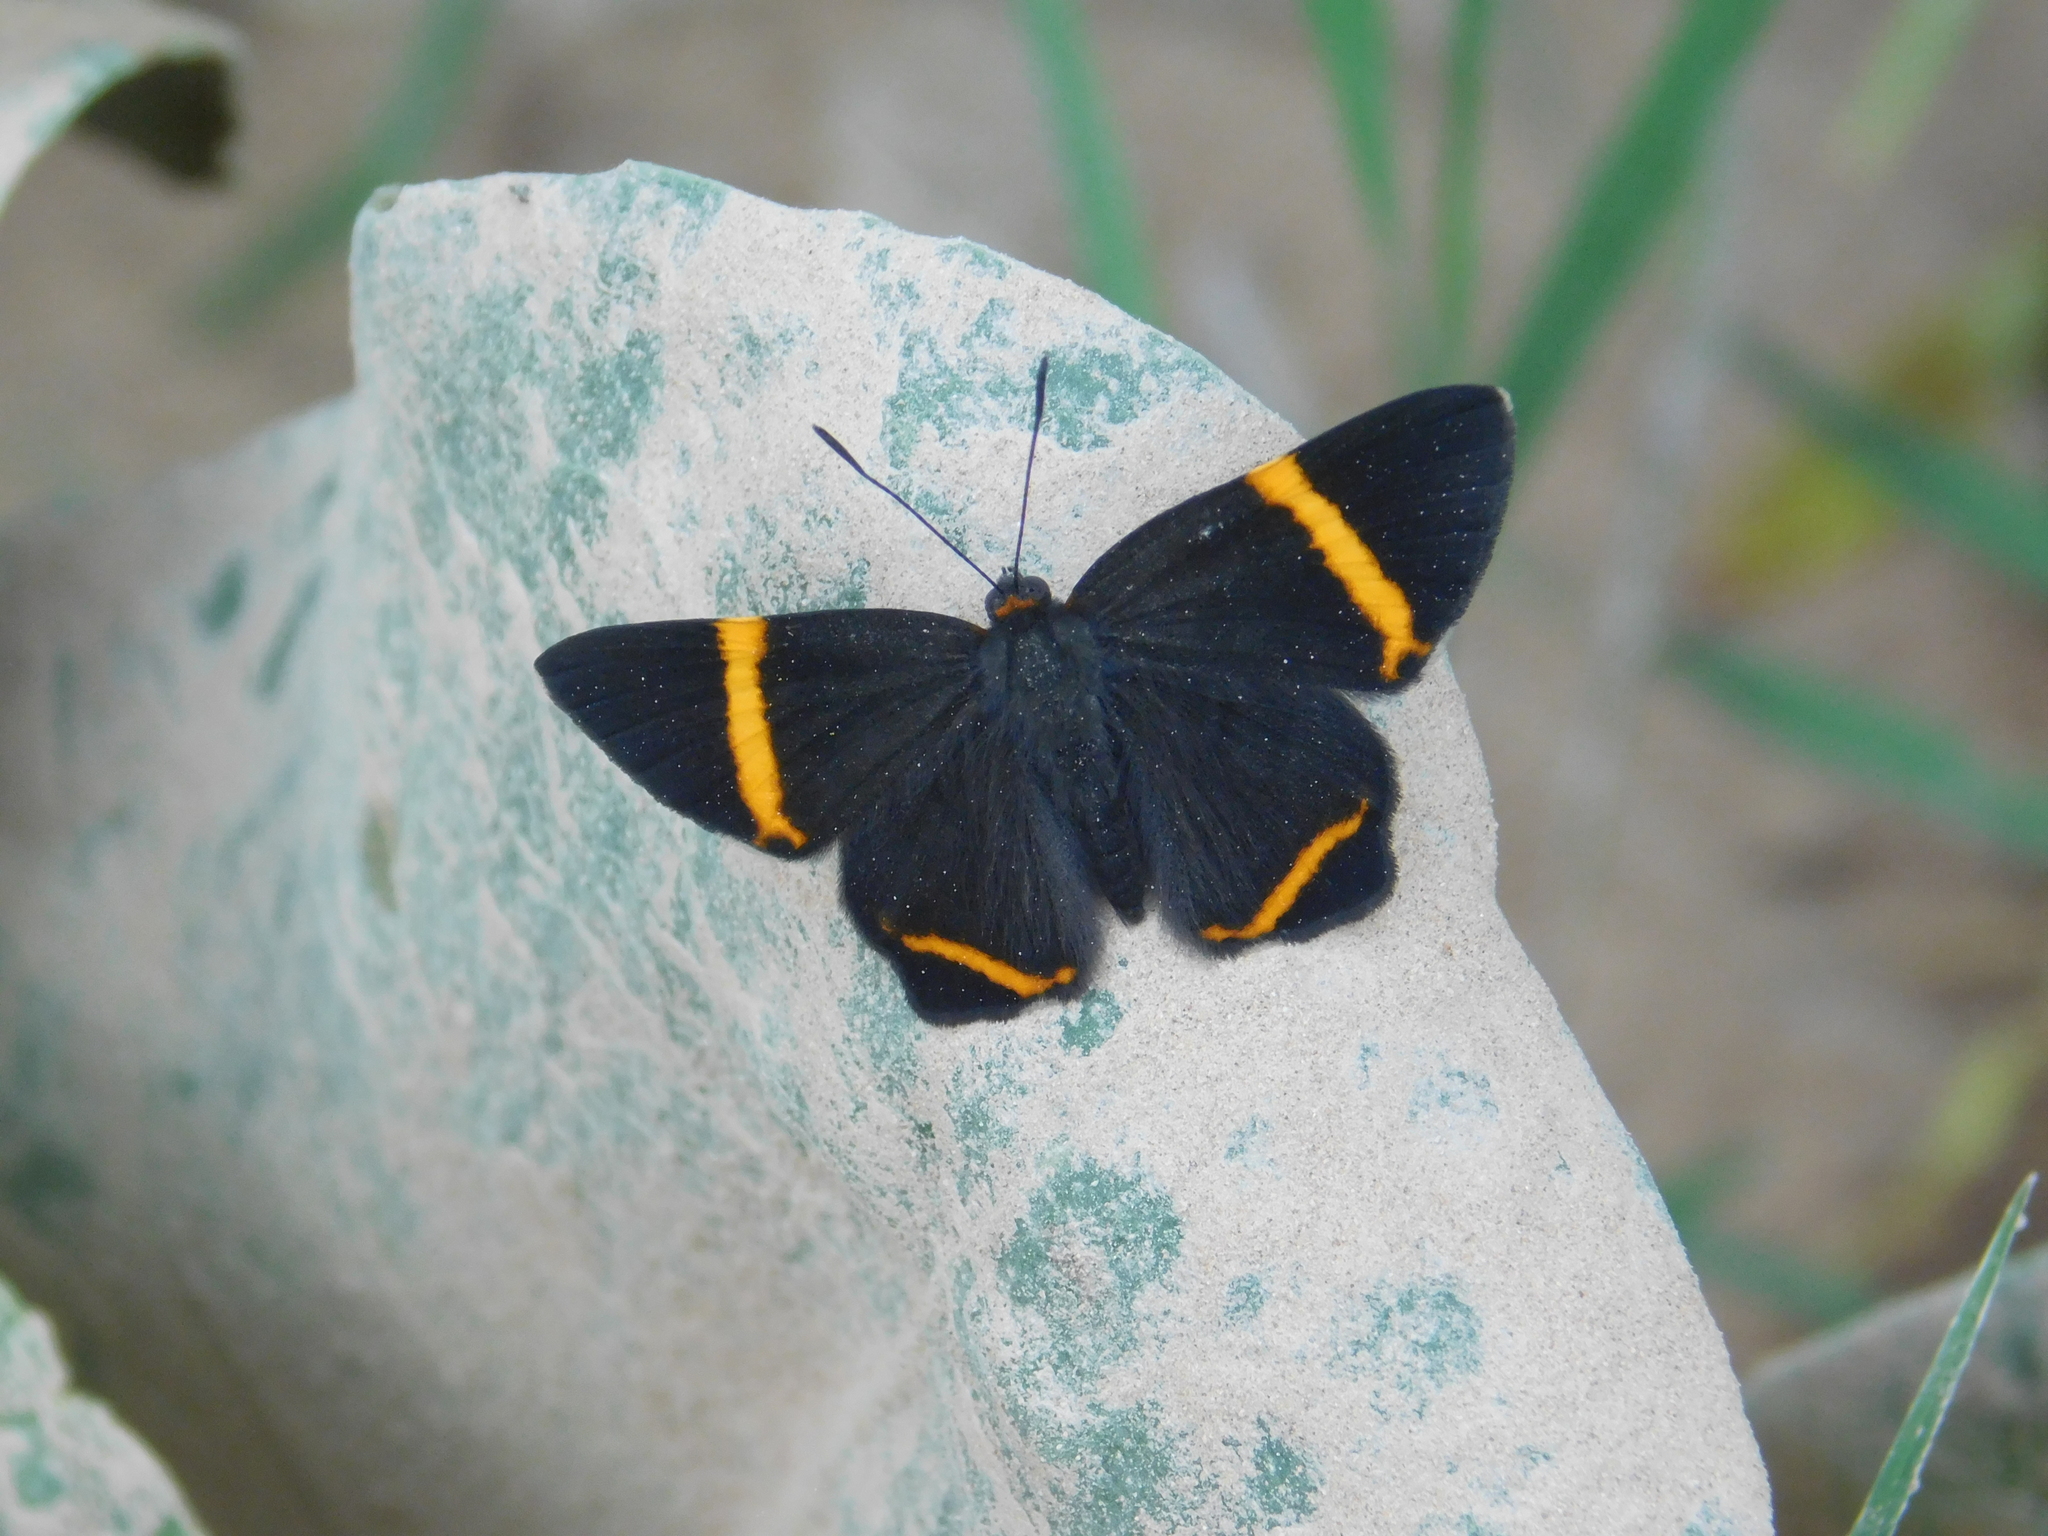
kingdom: Animalia
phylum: Arthropoda
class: Insecta
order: Lepidoptera
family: Riodinidae
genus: Riodina
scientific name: Riodina lysippoides
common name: Little dancer metalmark
